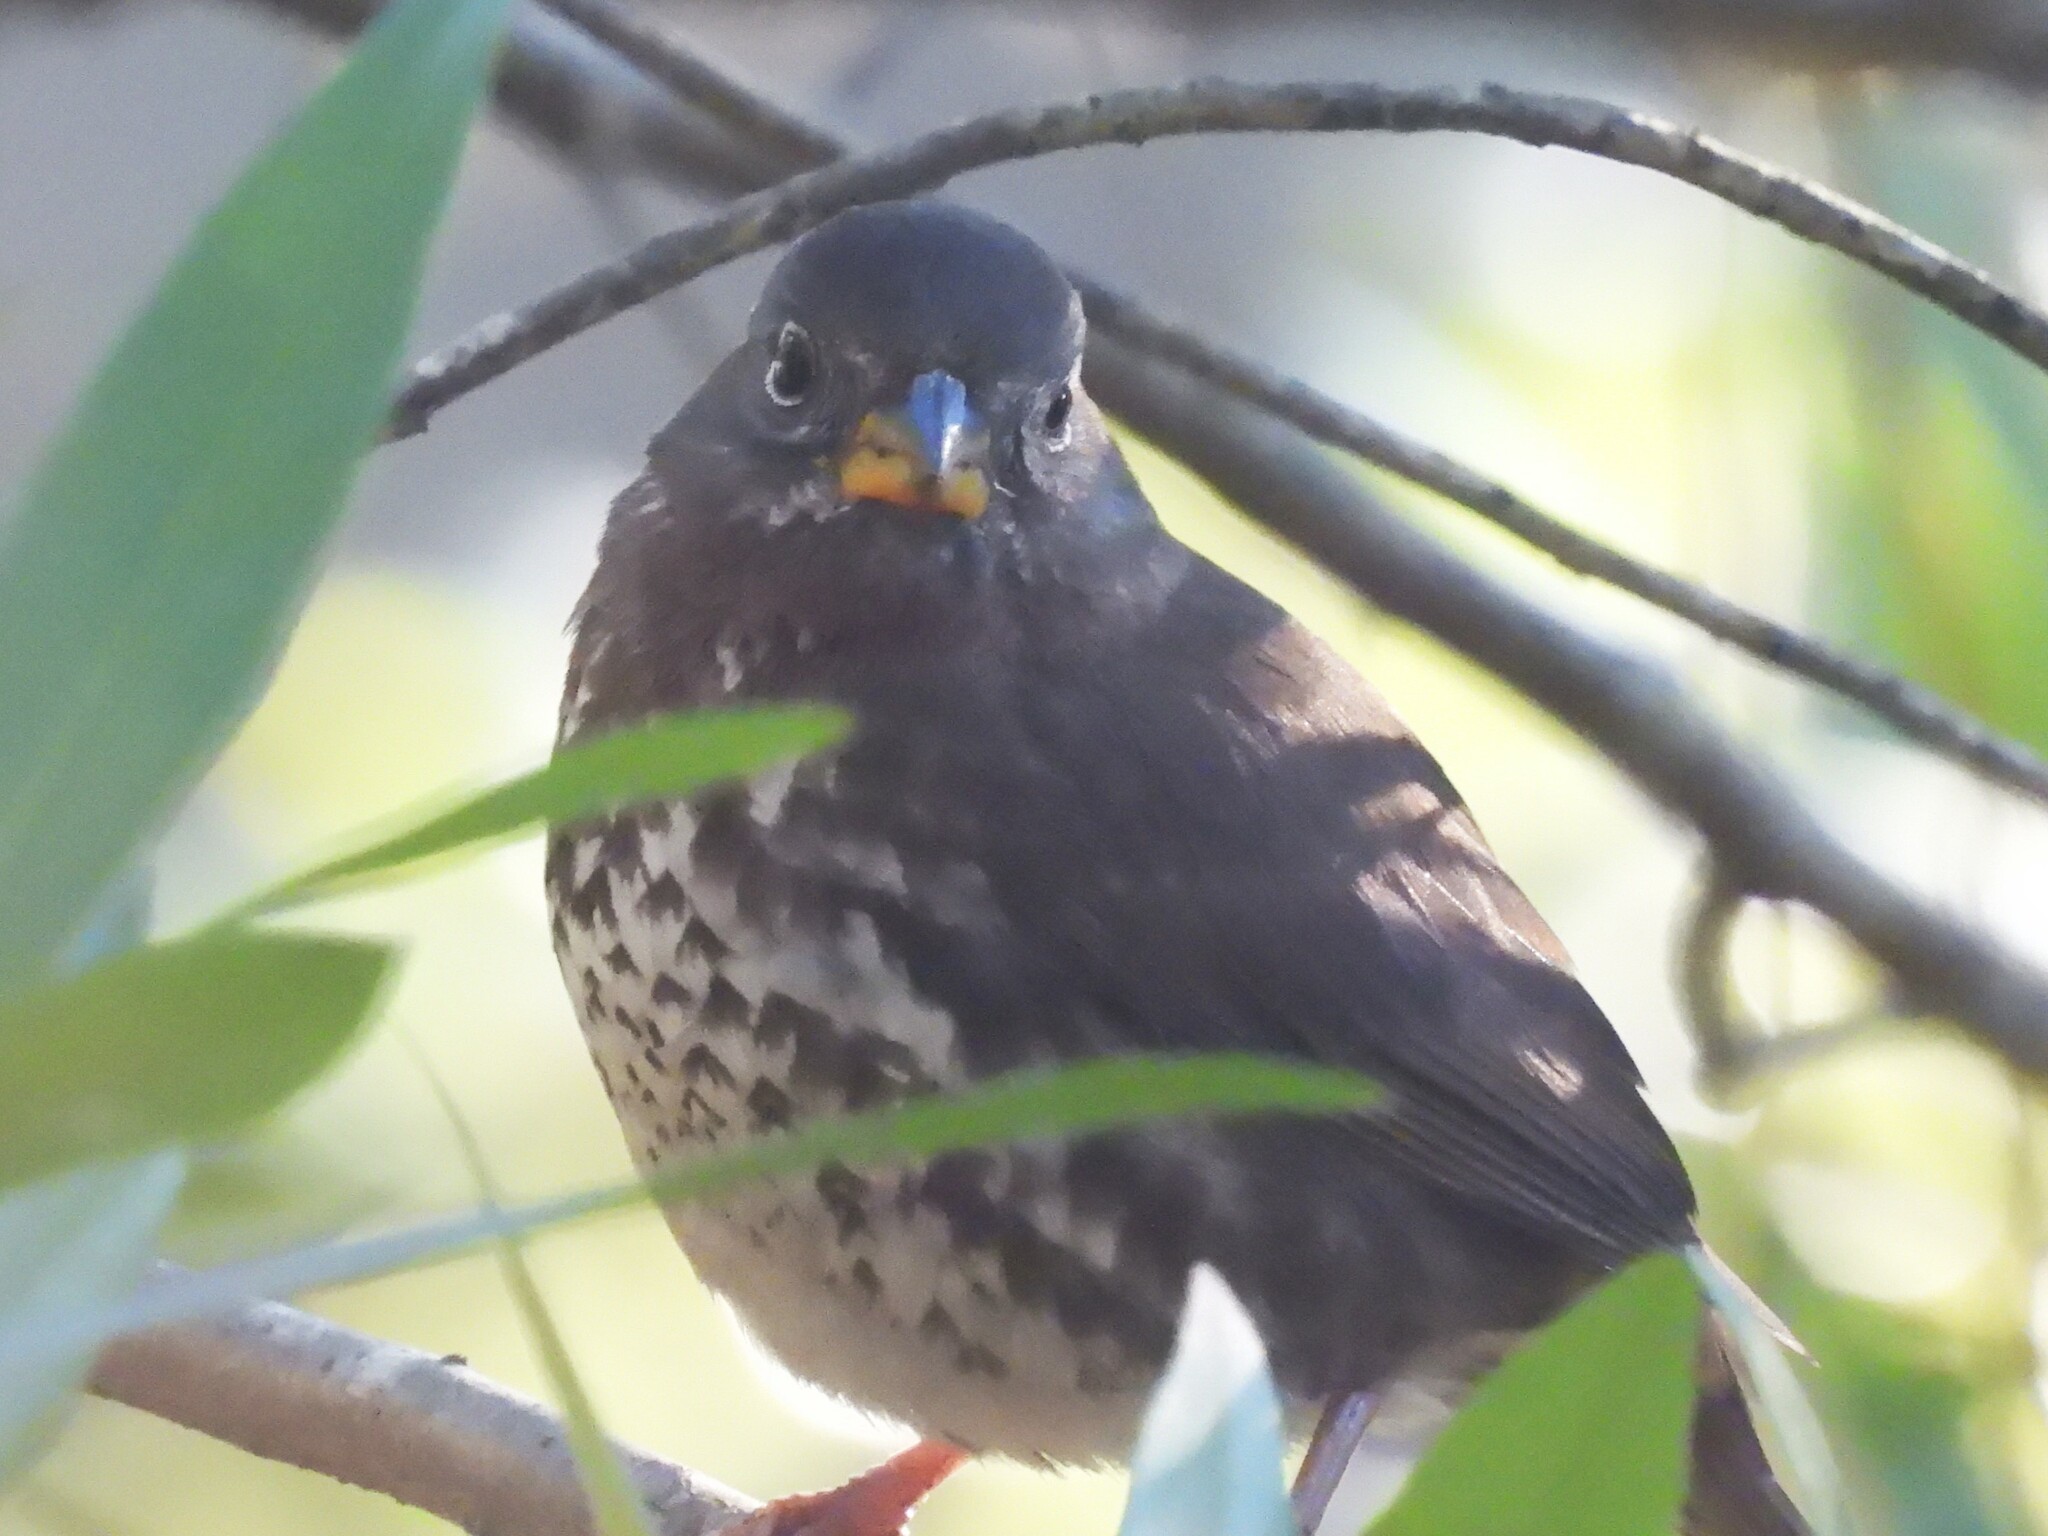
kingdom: Animalia
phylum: Chordata
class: Aves
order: Passeriformes
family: Passerellidae
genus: Passerella
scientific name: Passerella iliaca
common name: Fox sparrow
